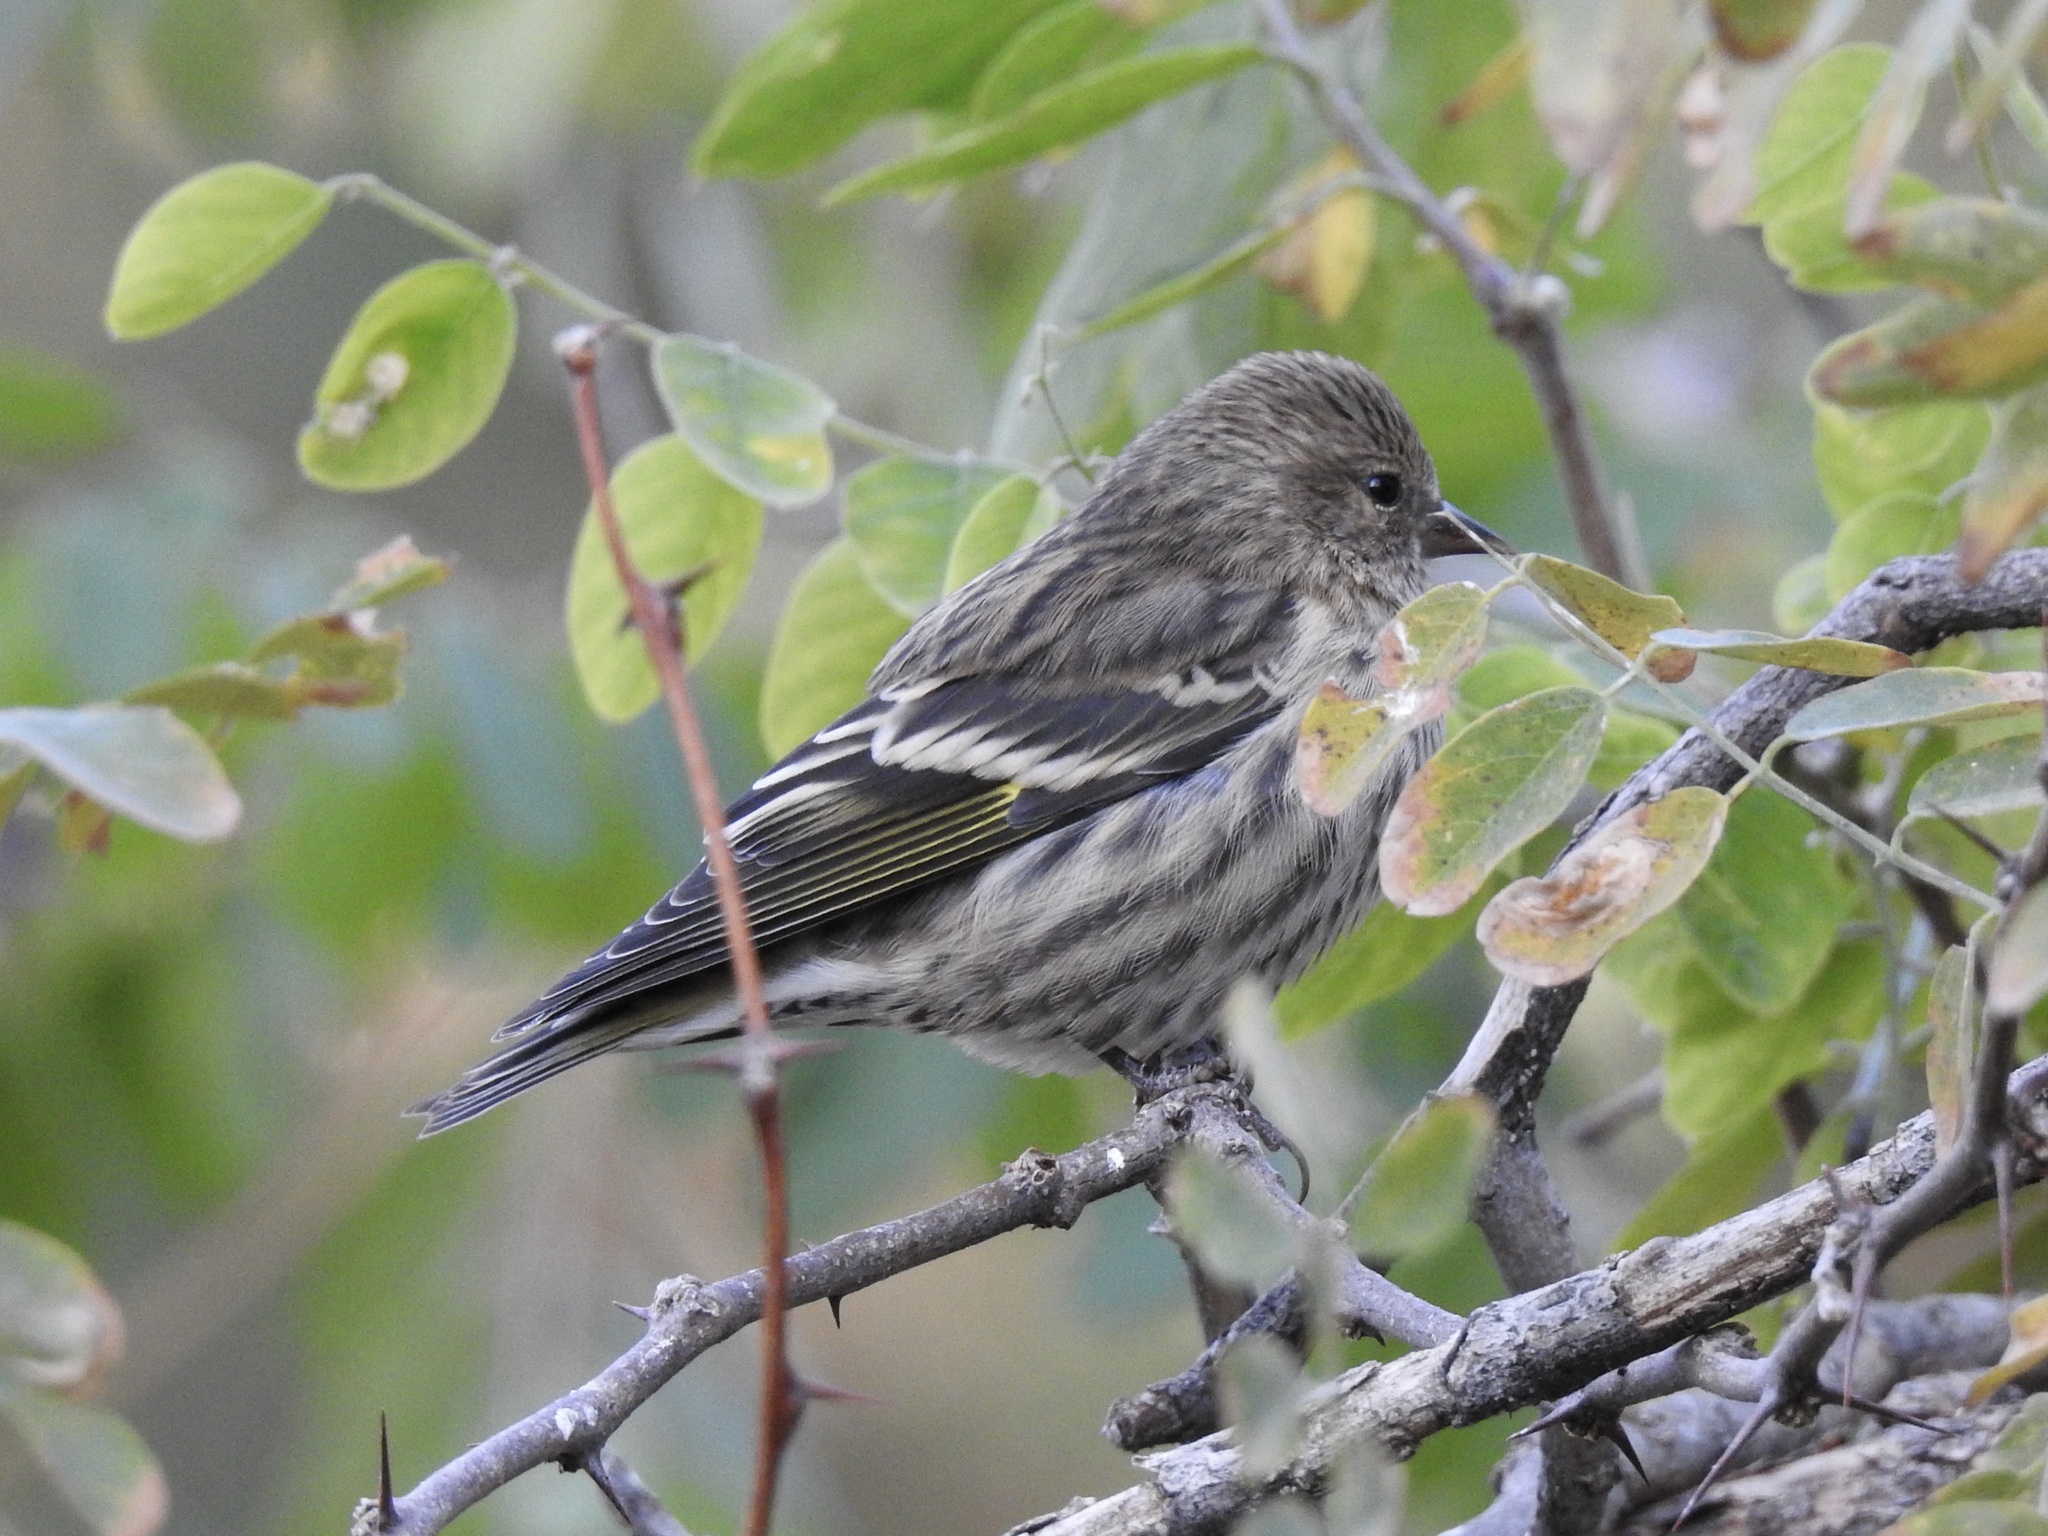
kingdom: Animalia
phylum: Chordata
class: Aves
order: Passeriformes
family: Fringillidae
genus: Spinus
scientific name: Spinus pinus
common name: Pine siskin
